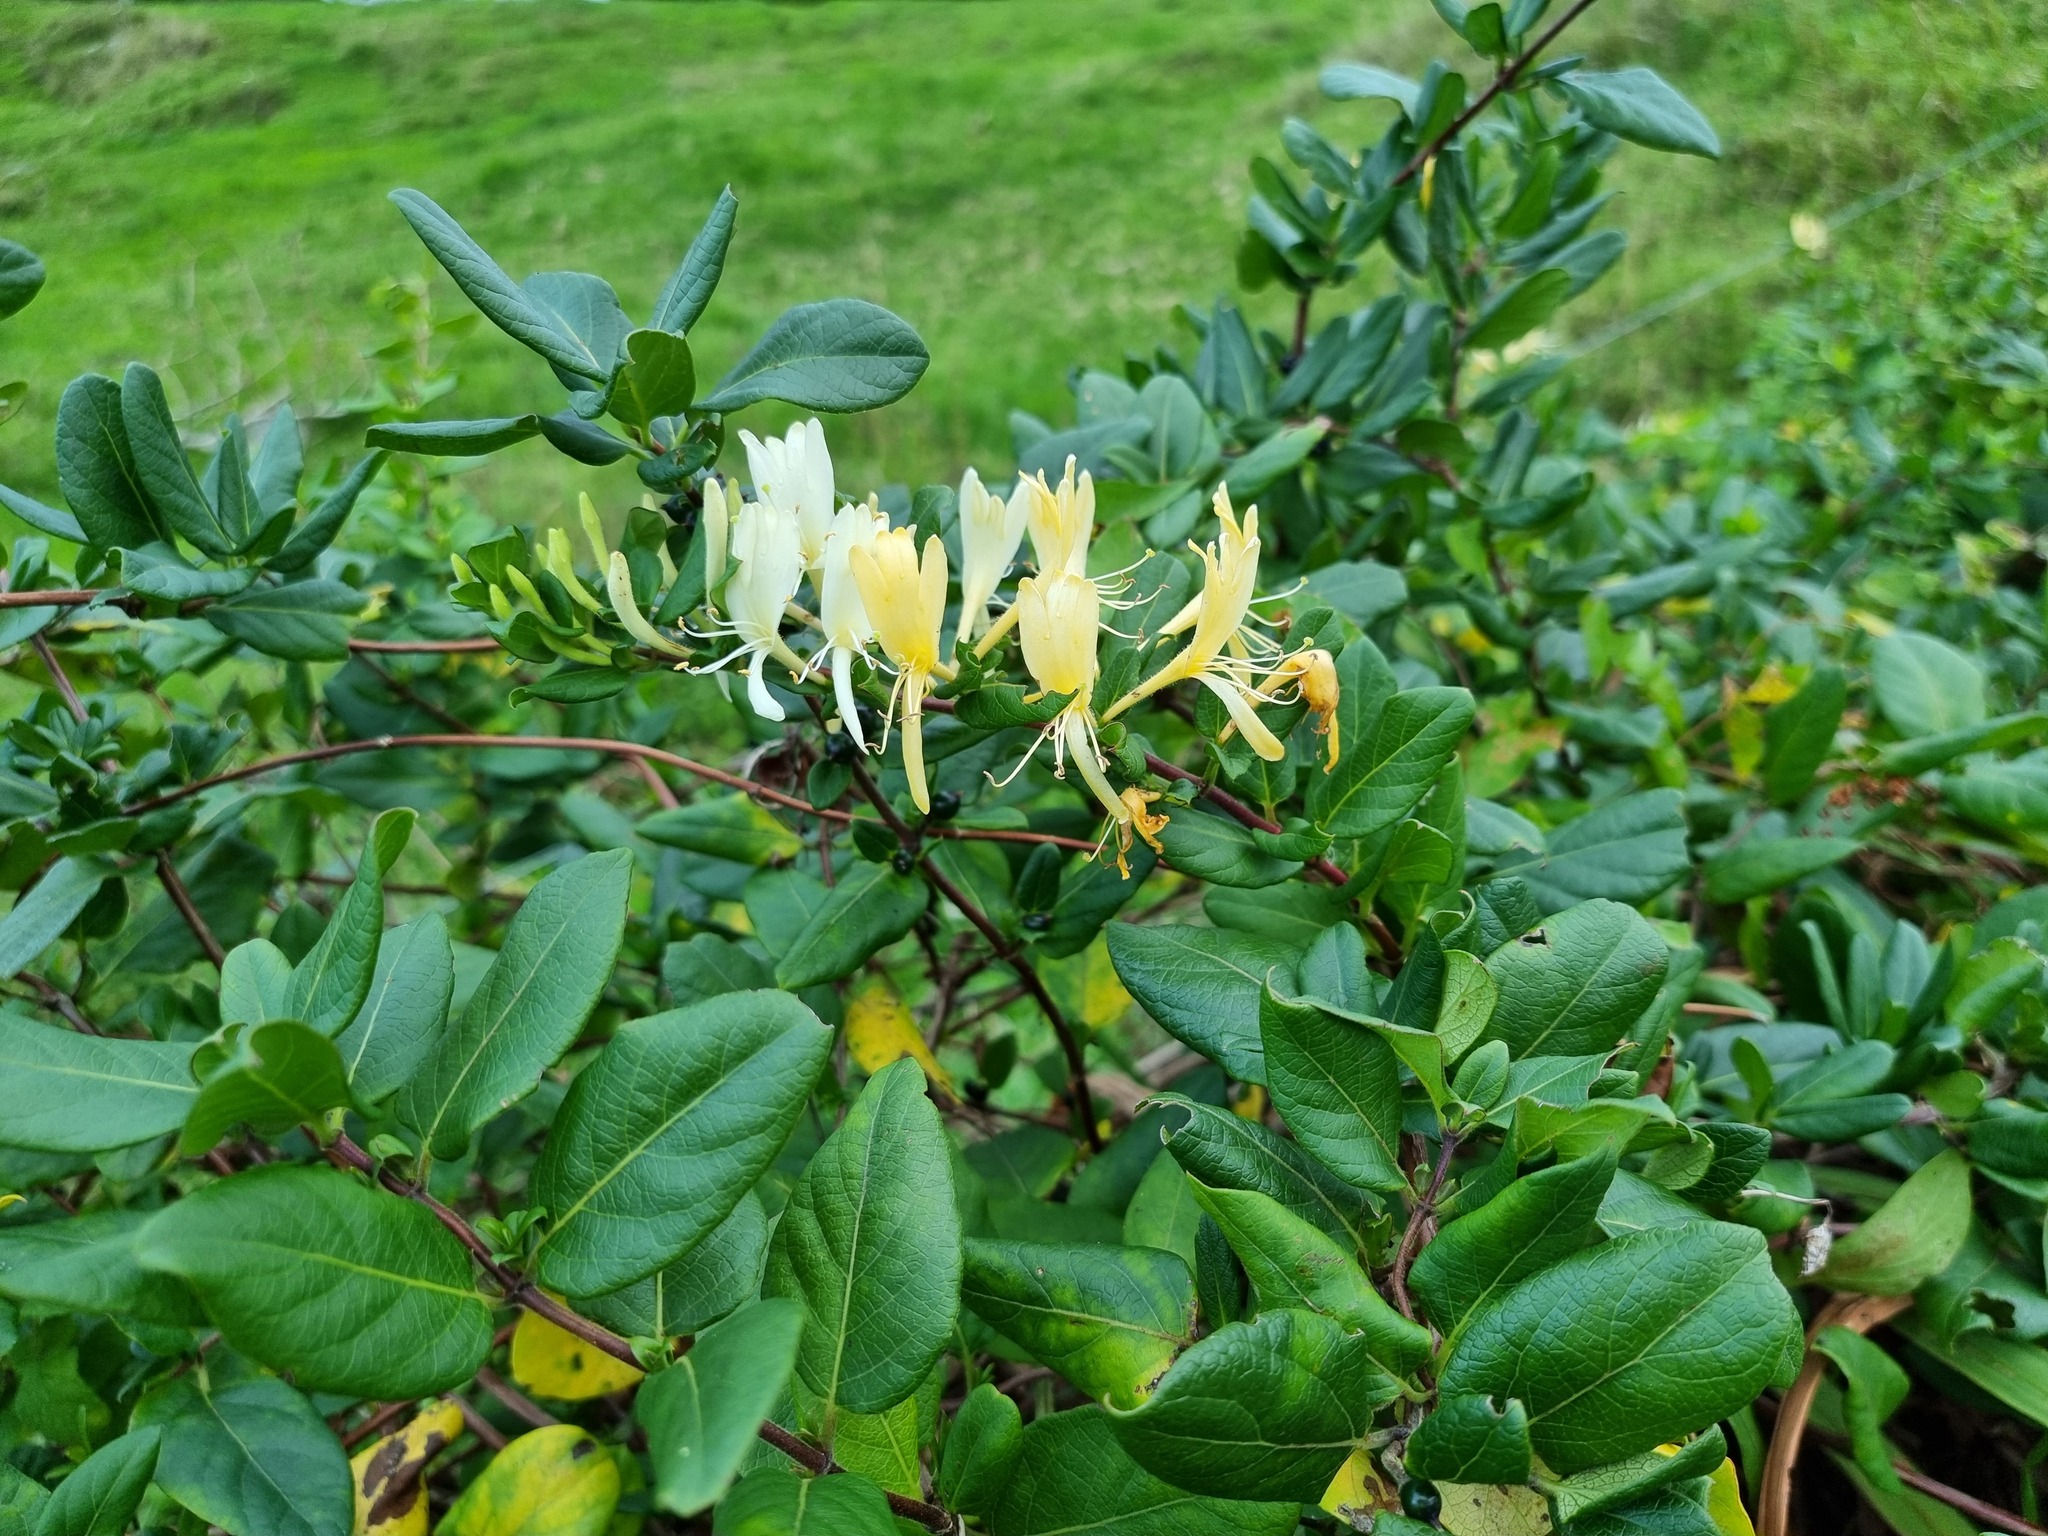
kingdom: Plantae
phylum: Tracheophyta
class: Magnoliopsida
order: Dipsacales
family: Caprifoliaceae
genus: Lonicera
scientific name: Lonicera japonica
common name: Japanese honeysuckle
